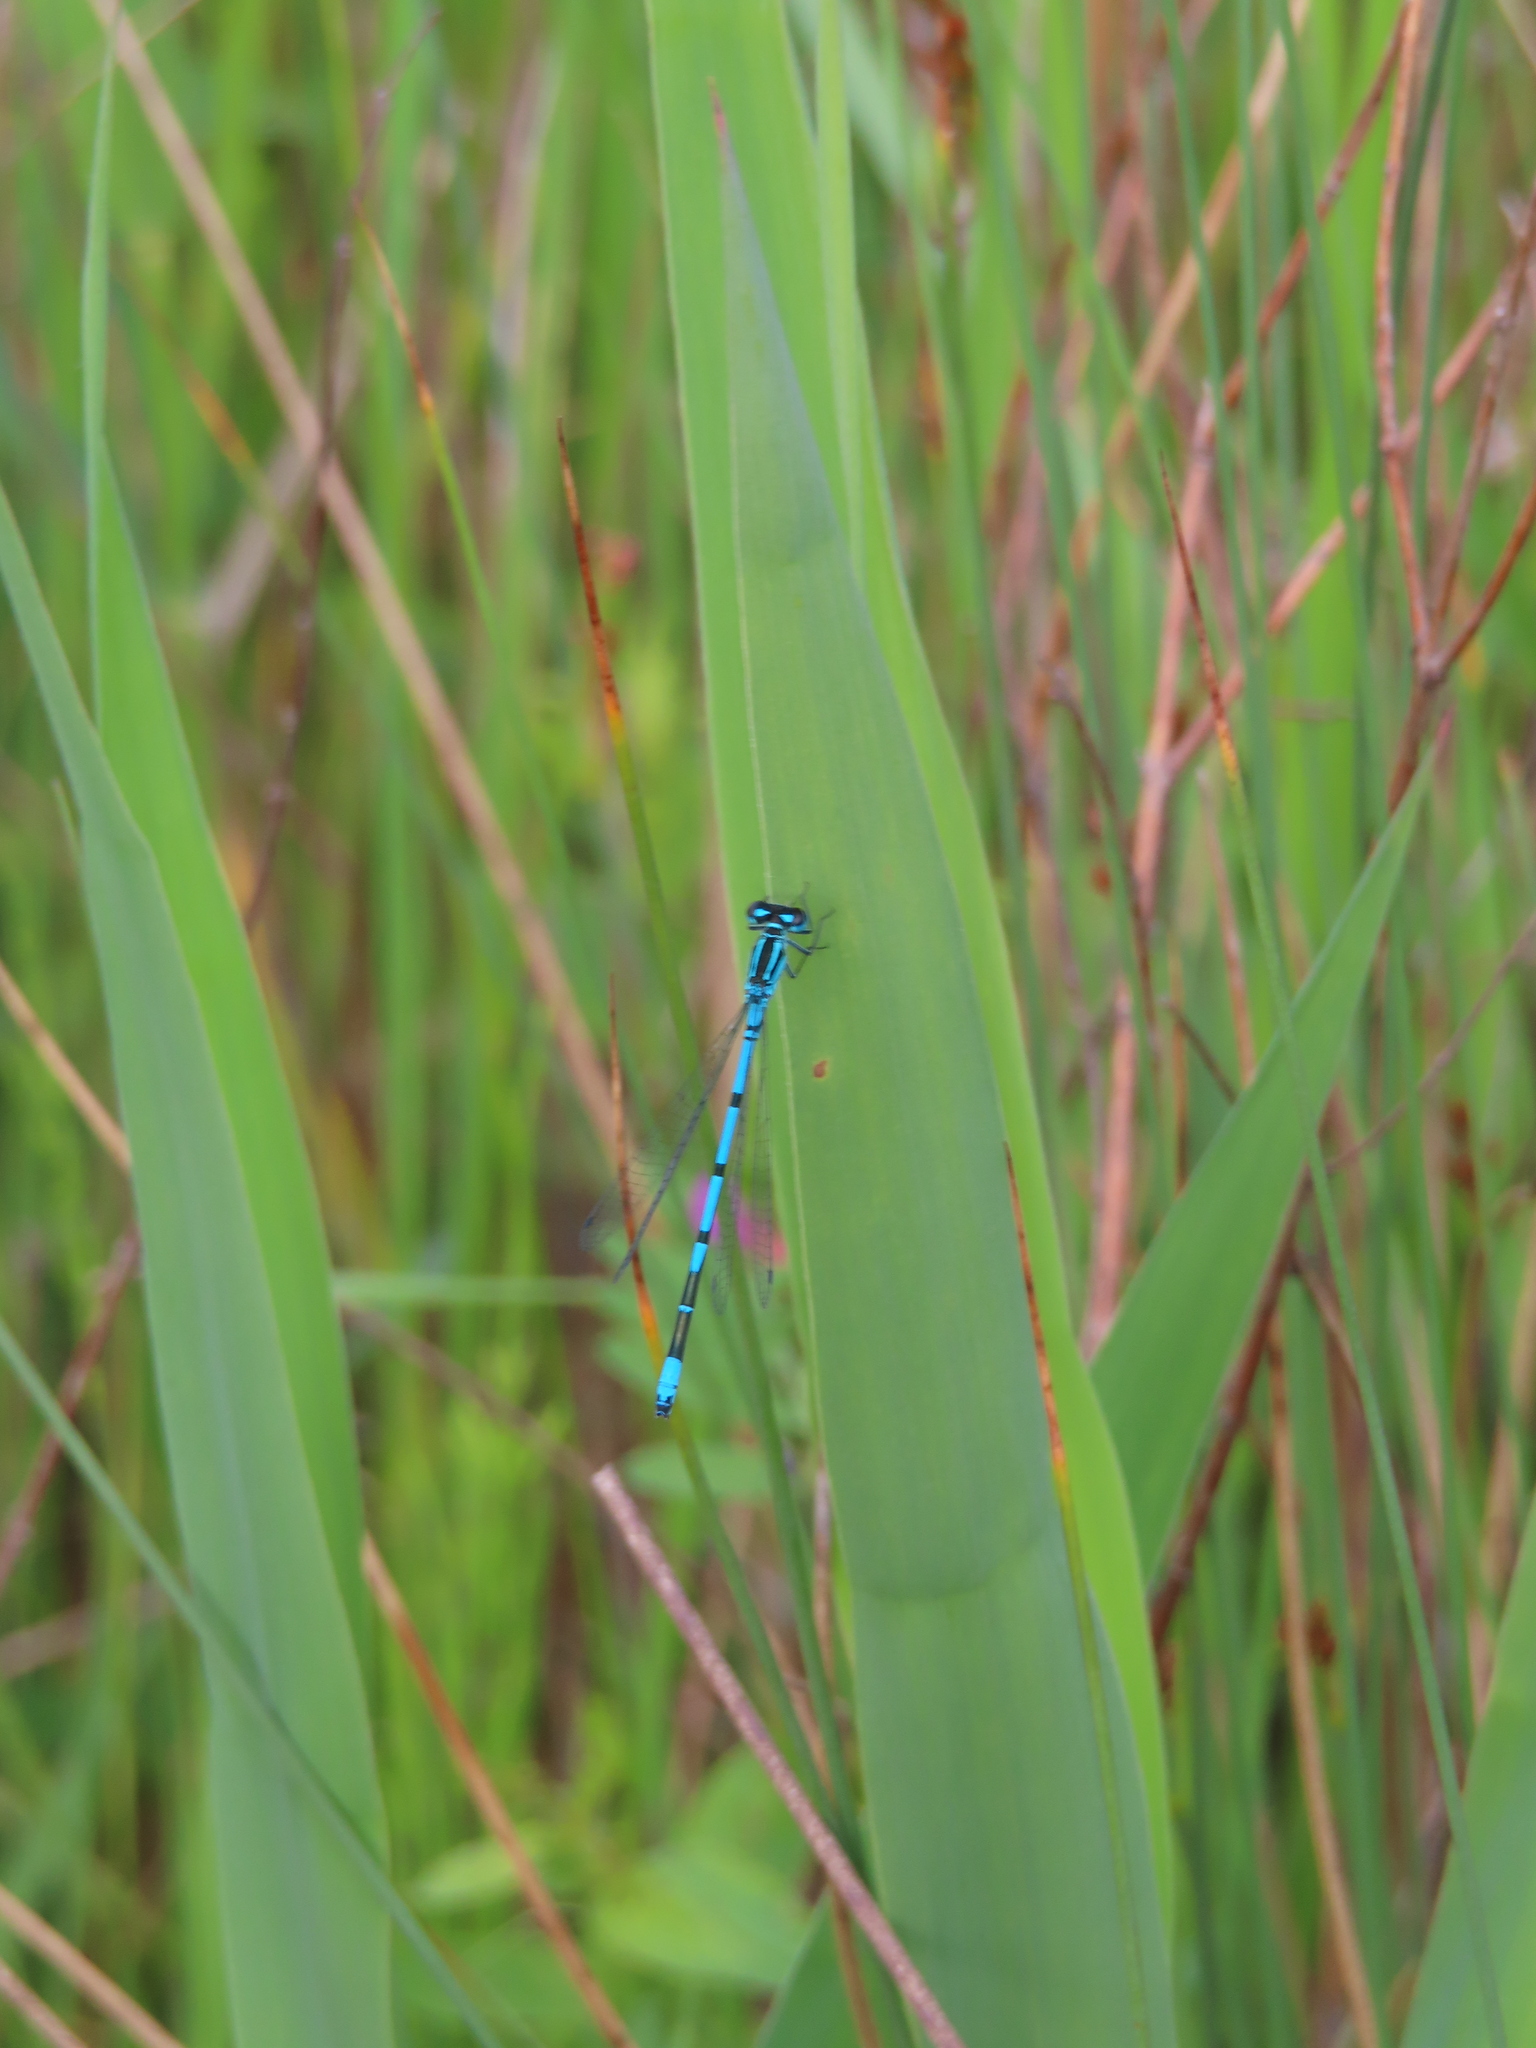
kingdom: Animalia
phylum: Arthropoda
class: Insecta
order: Odonata
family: Coenagrionidae
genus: Coenagrion
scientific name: Coenagrion puella
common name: Azure damselfly
